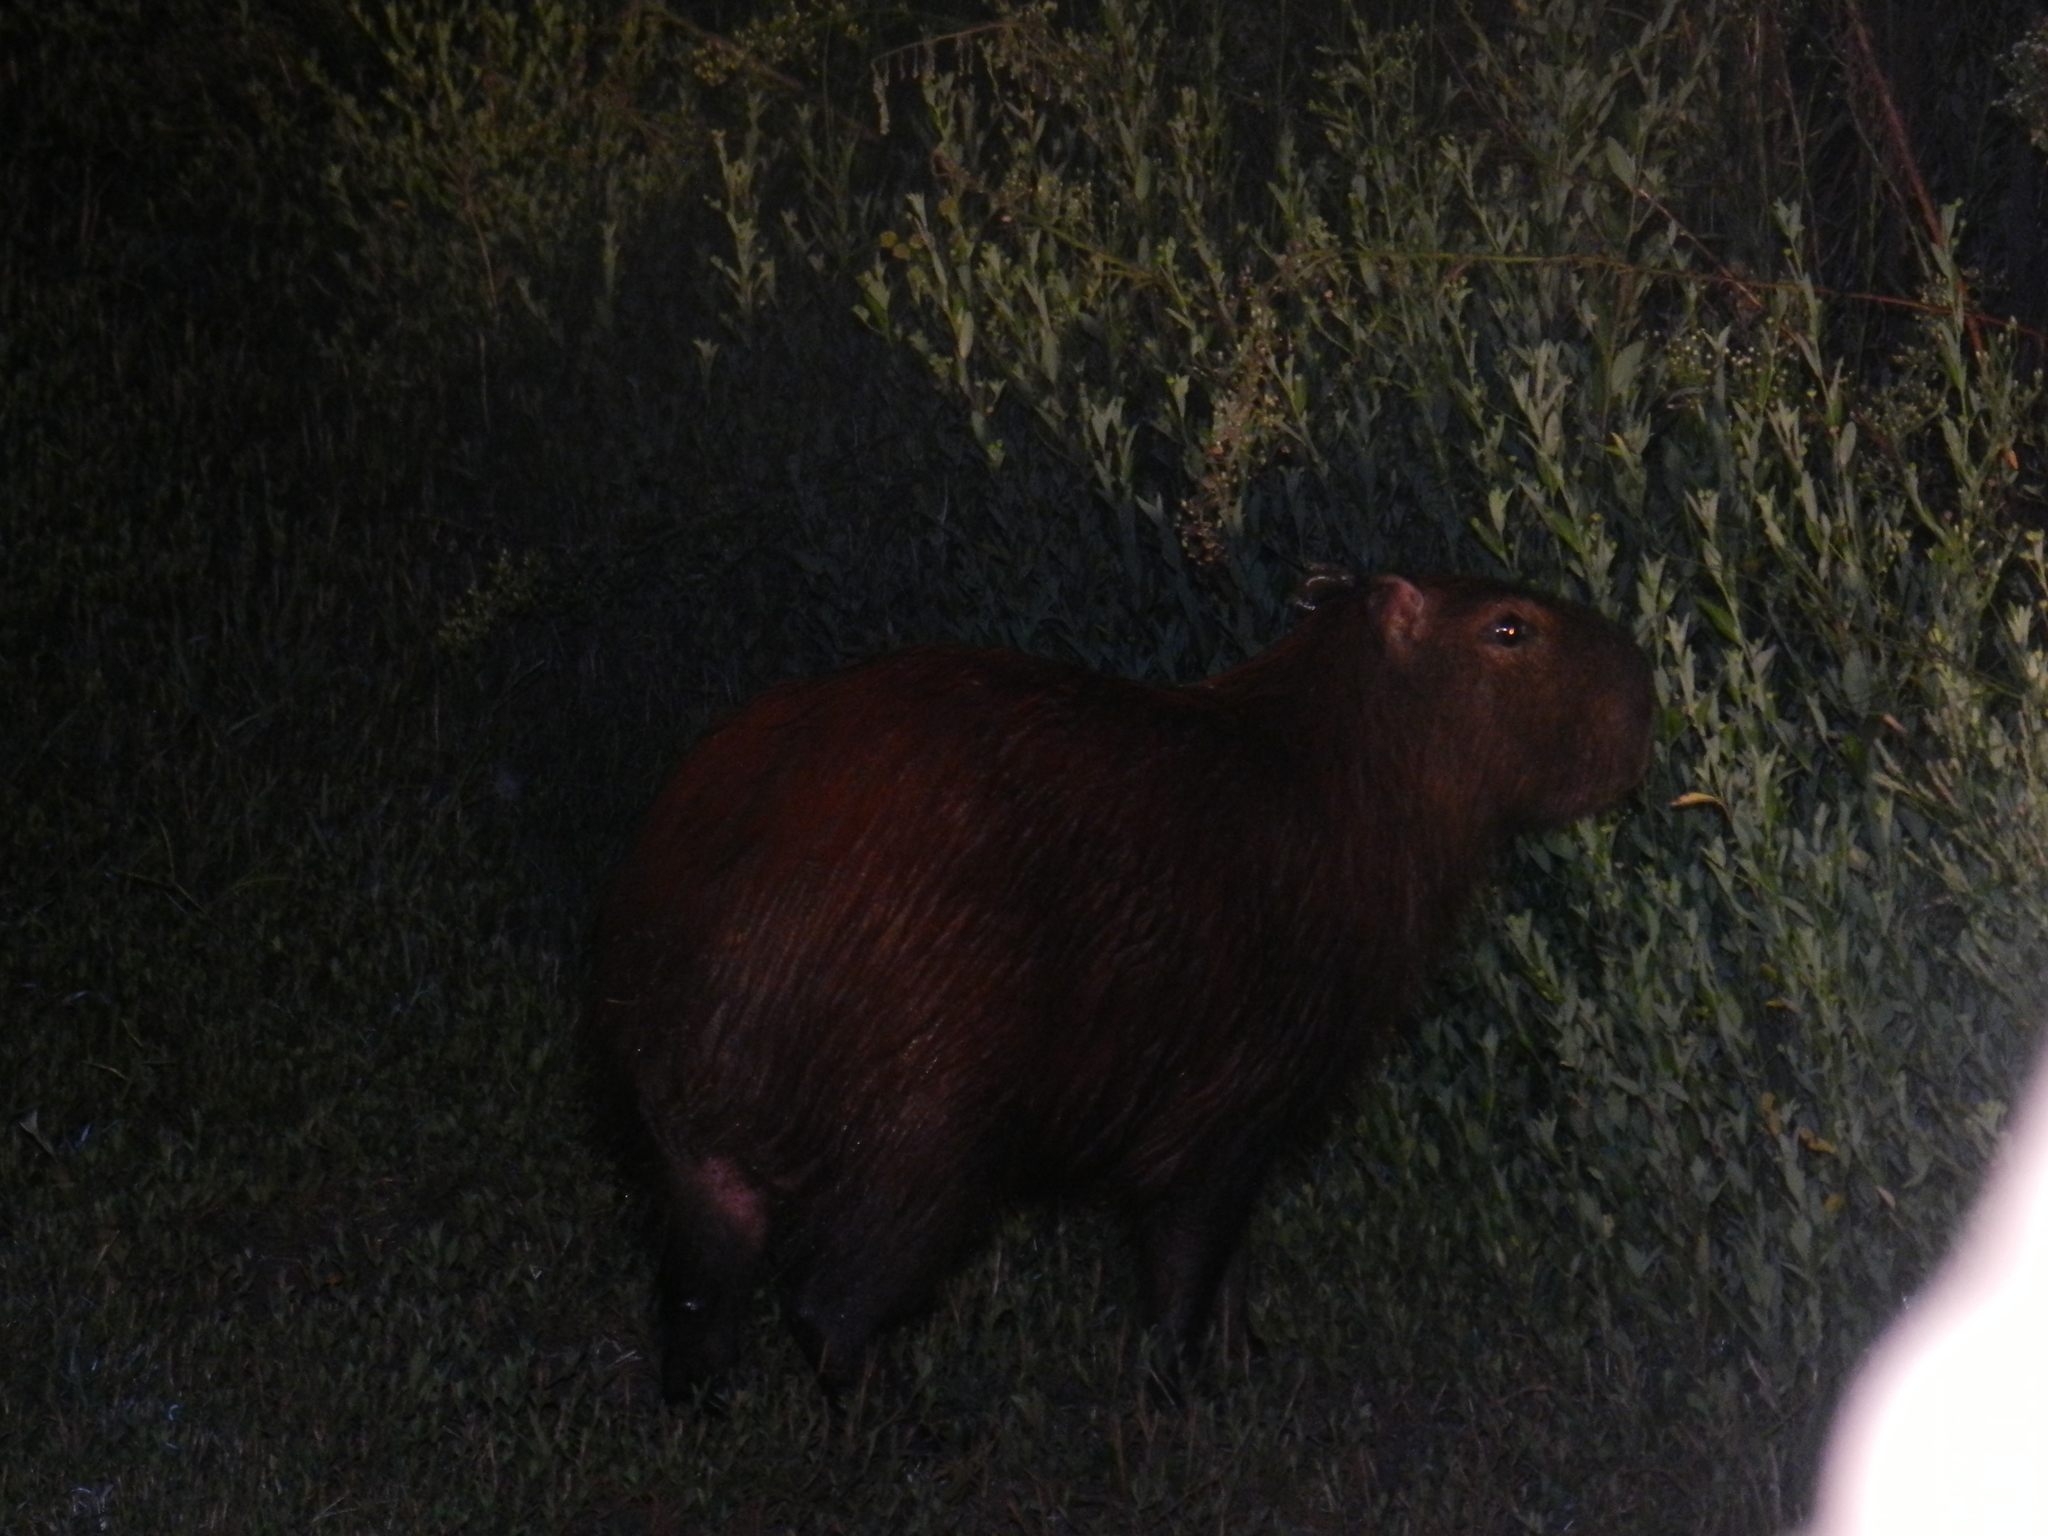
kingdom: Animalia
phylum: Chordata
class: Mammalia
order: Rodentia
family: Caviidae
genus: Hydrochoerus
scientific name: Hydrochoerus hydrochaeris
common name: Capybara
